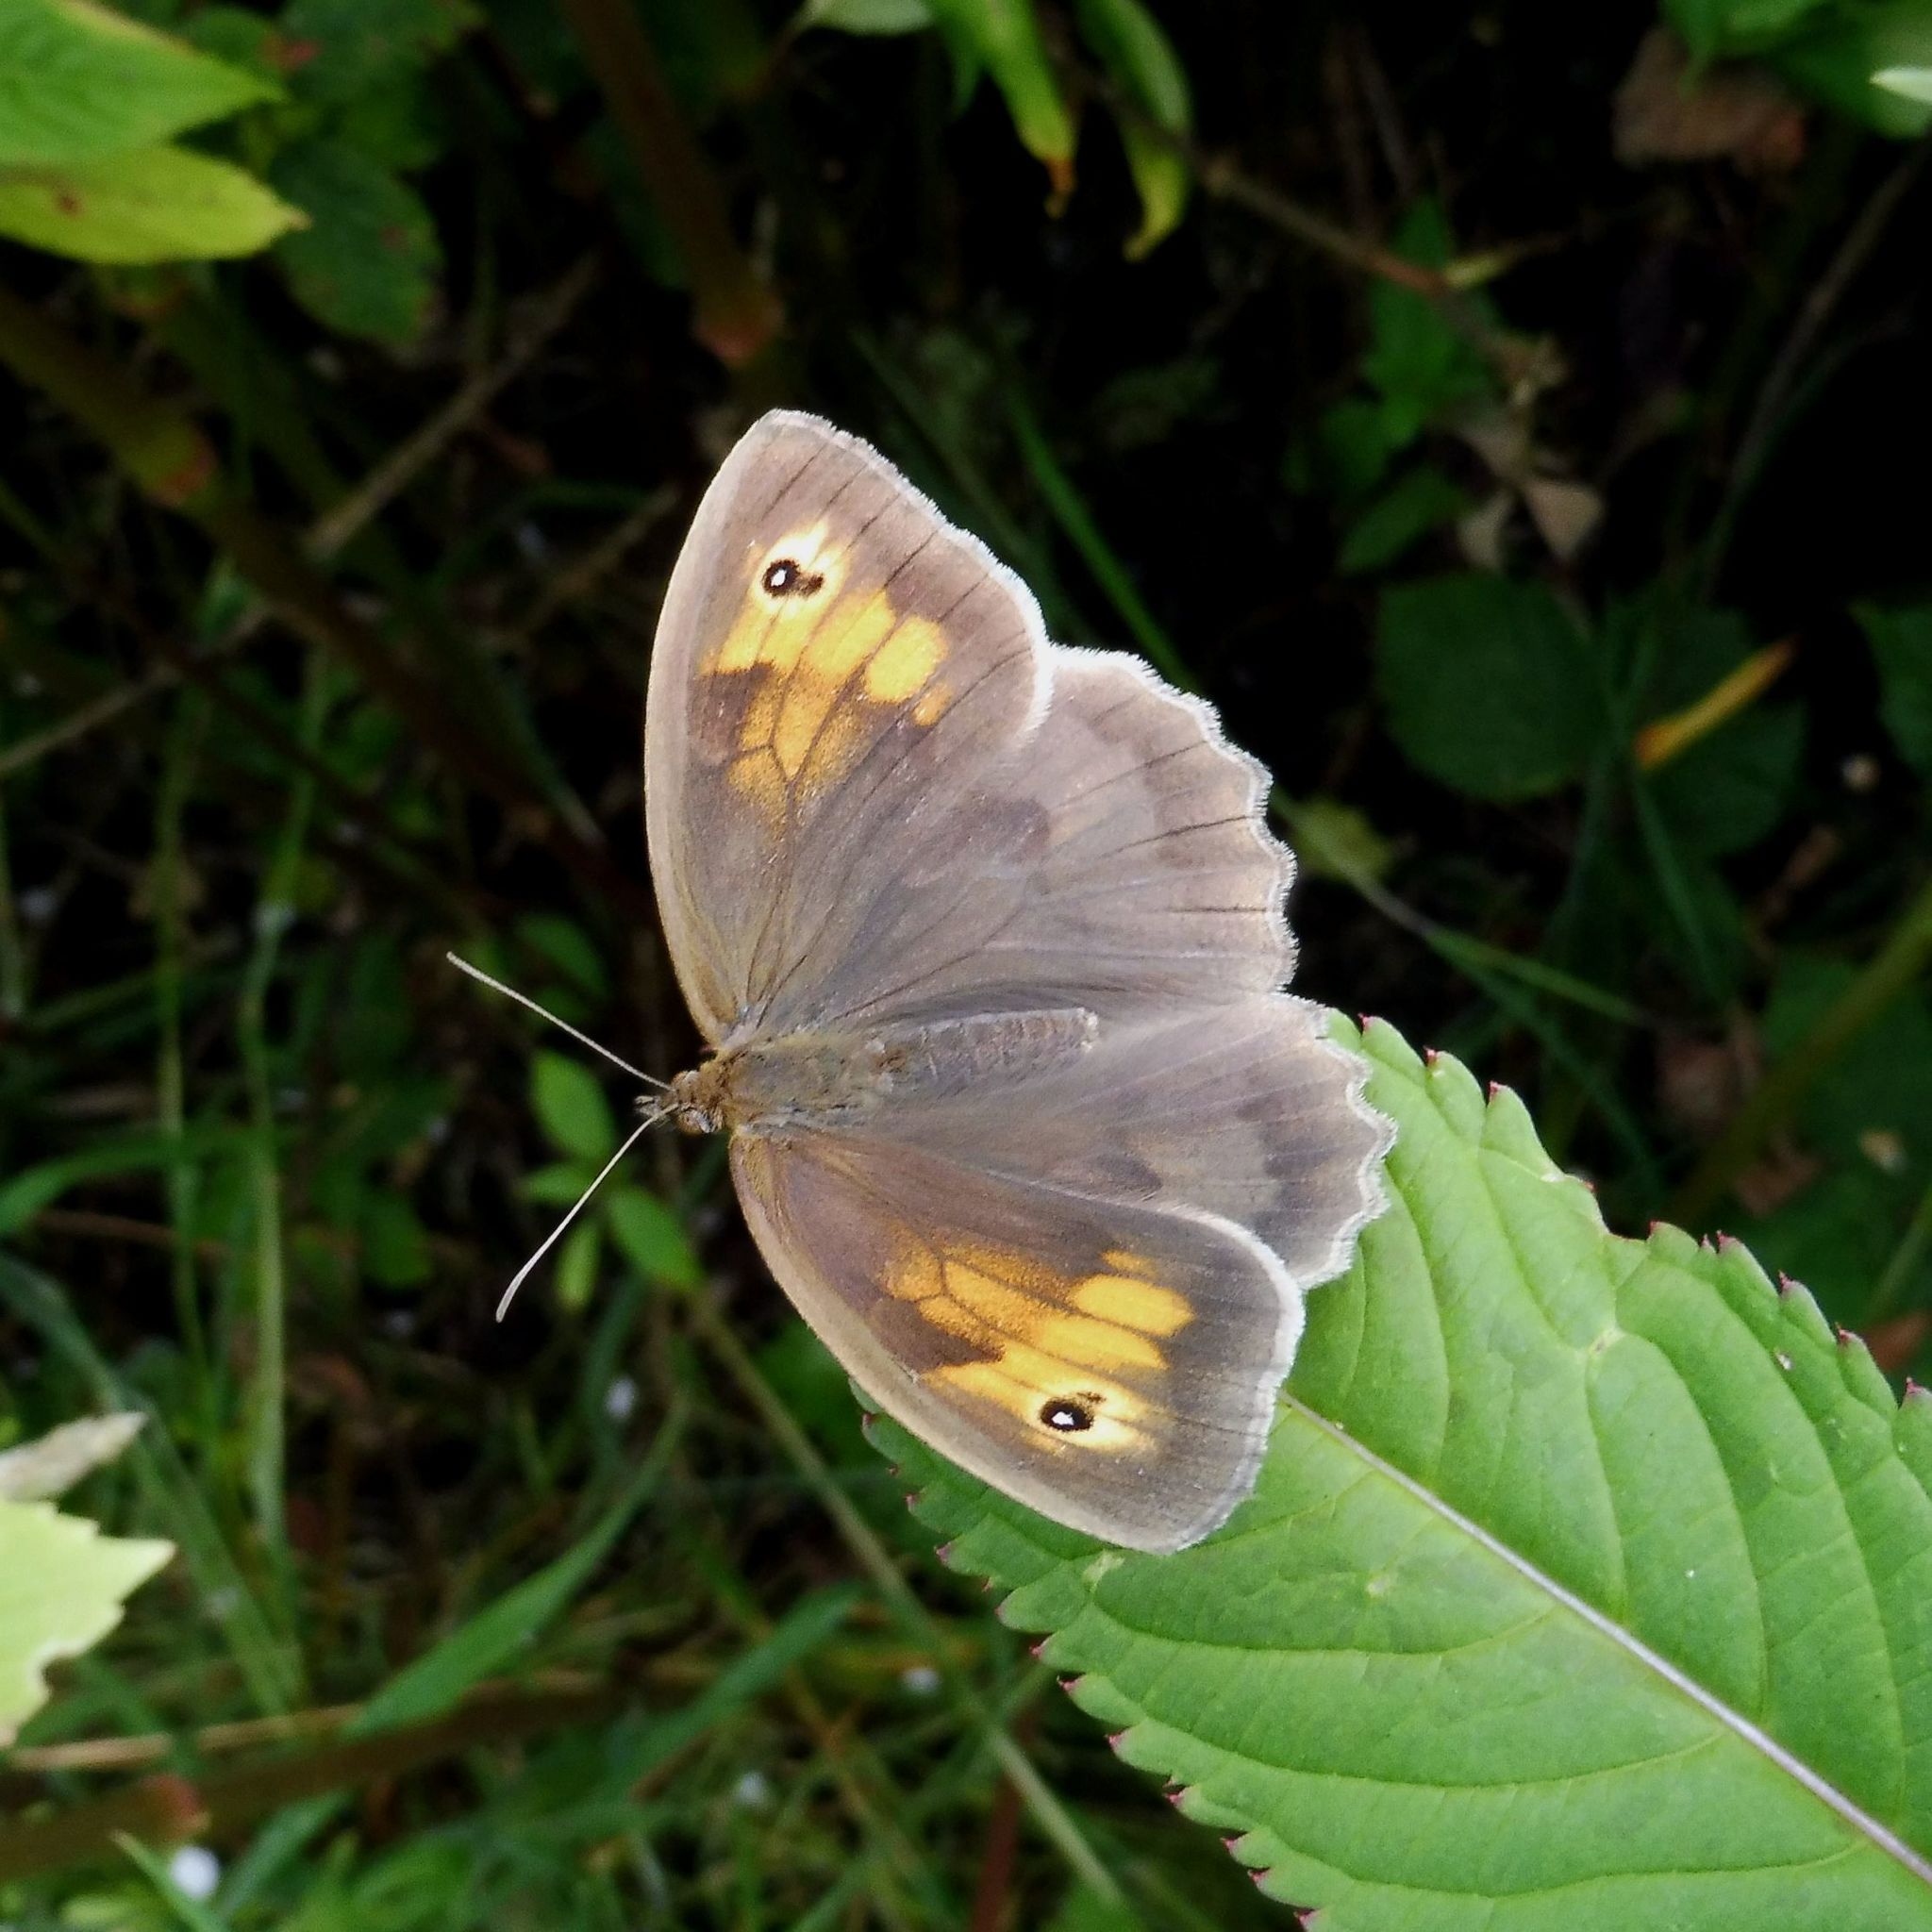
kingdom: Animalia
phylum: Arthropoda
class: Insecta
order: Lepidoptera
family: Nymphalidae
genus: Maniola
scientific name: Maniola jurtina
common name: Meadow brown
